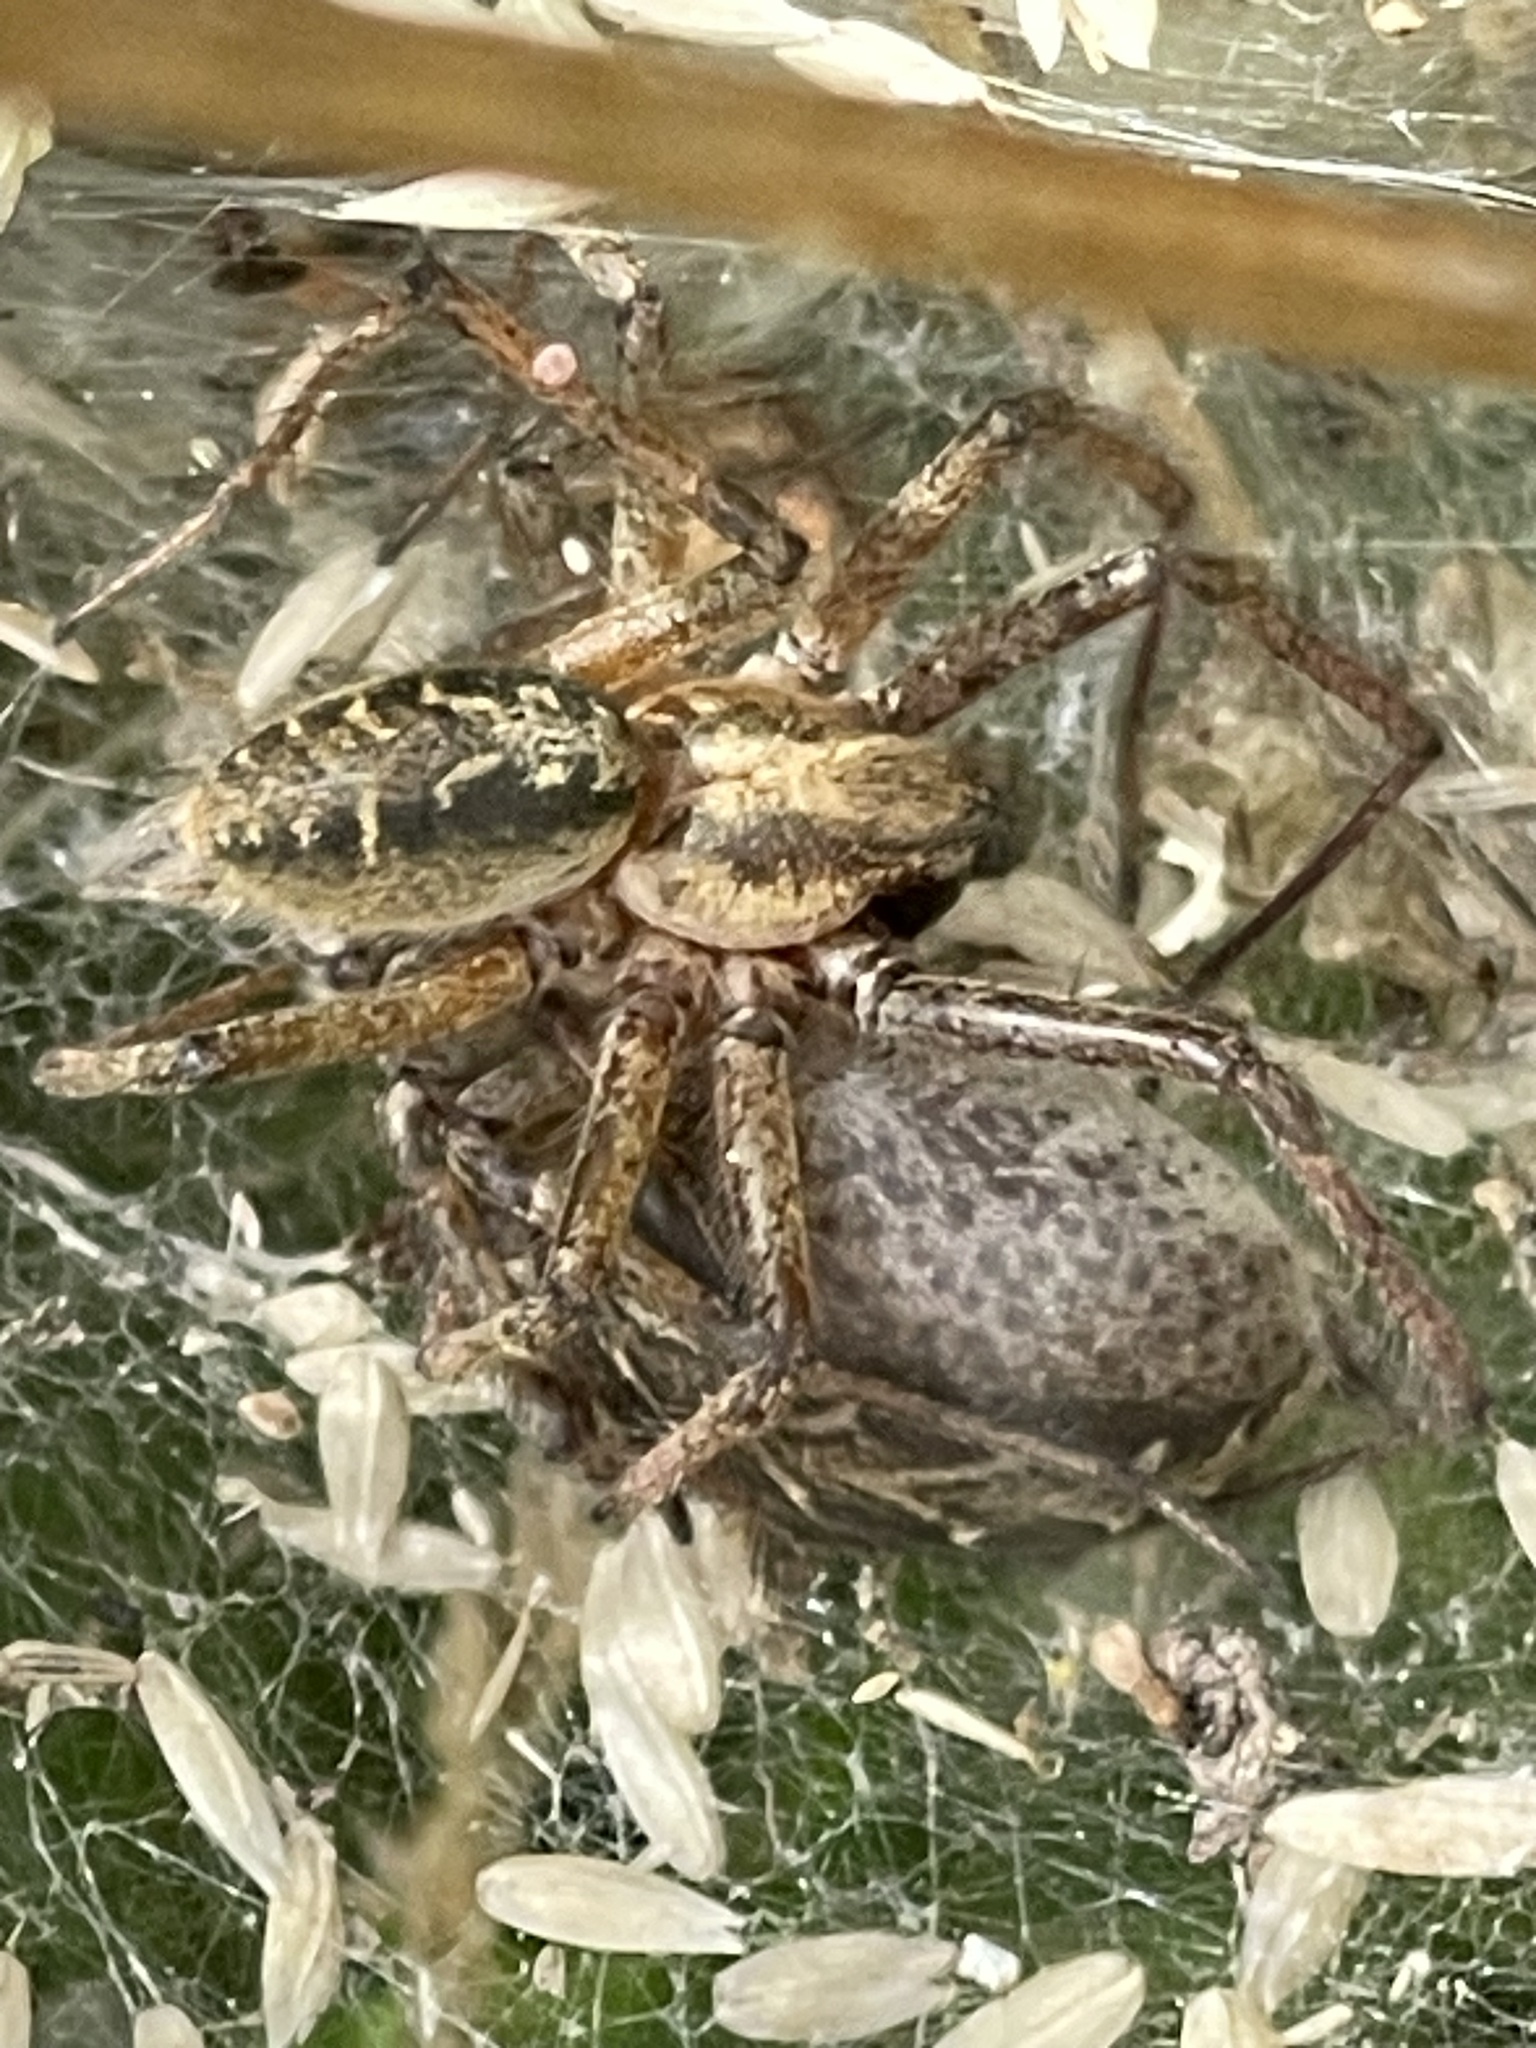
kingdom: Animalia
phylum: Arthropoda
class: Arachnida
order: Araneae
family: Agelenidae
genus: Agelena
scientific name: Agelena labyrinthica
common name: Labyrinth spider
